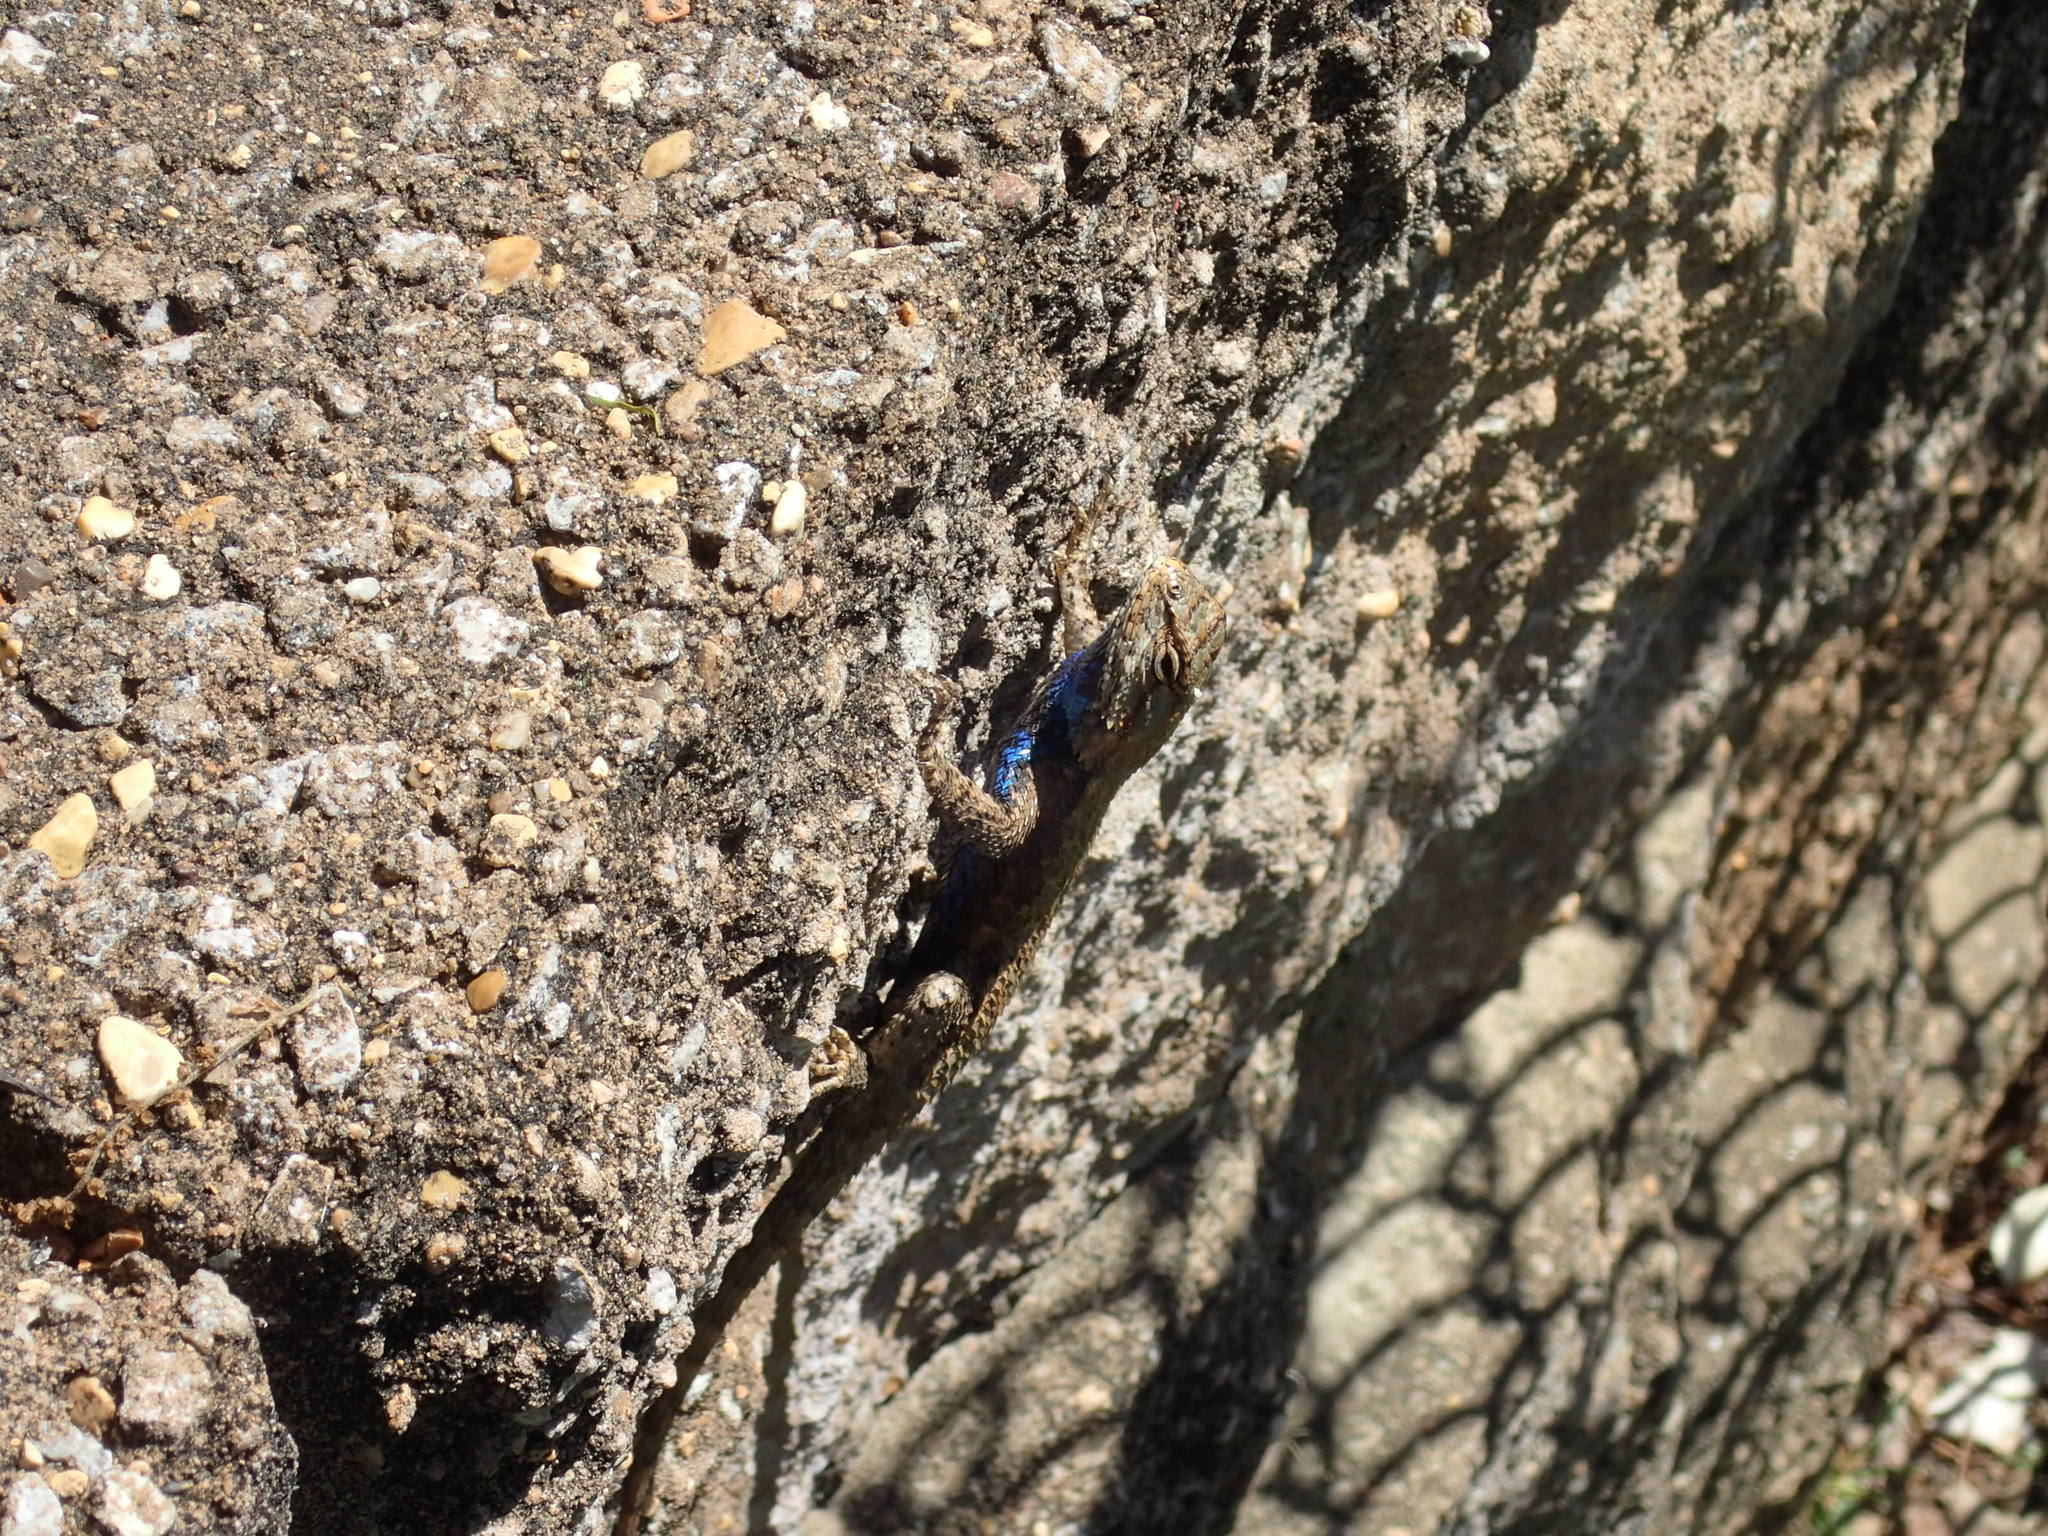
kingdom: Animalia
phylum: Chordata
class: Squamata
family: Phrynosomatidae
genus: Sceloporus
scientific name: Sceloporus undulatus
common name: Eastern fence lizard
